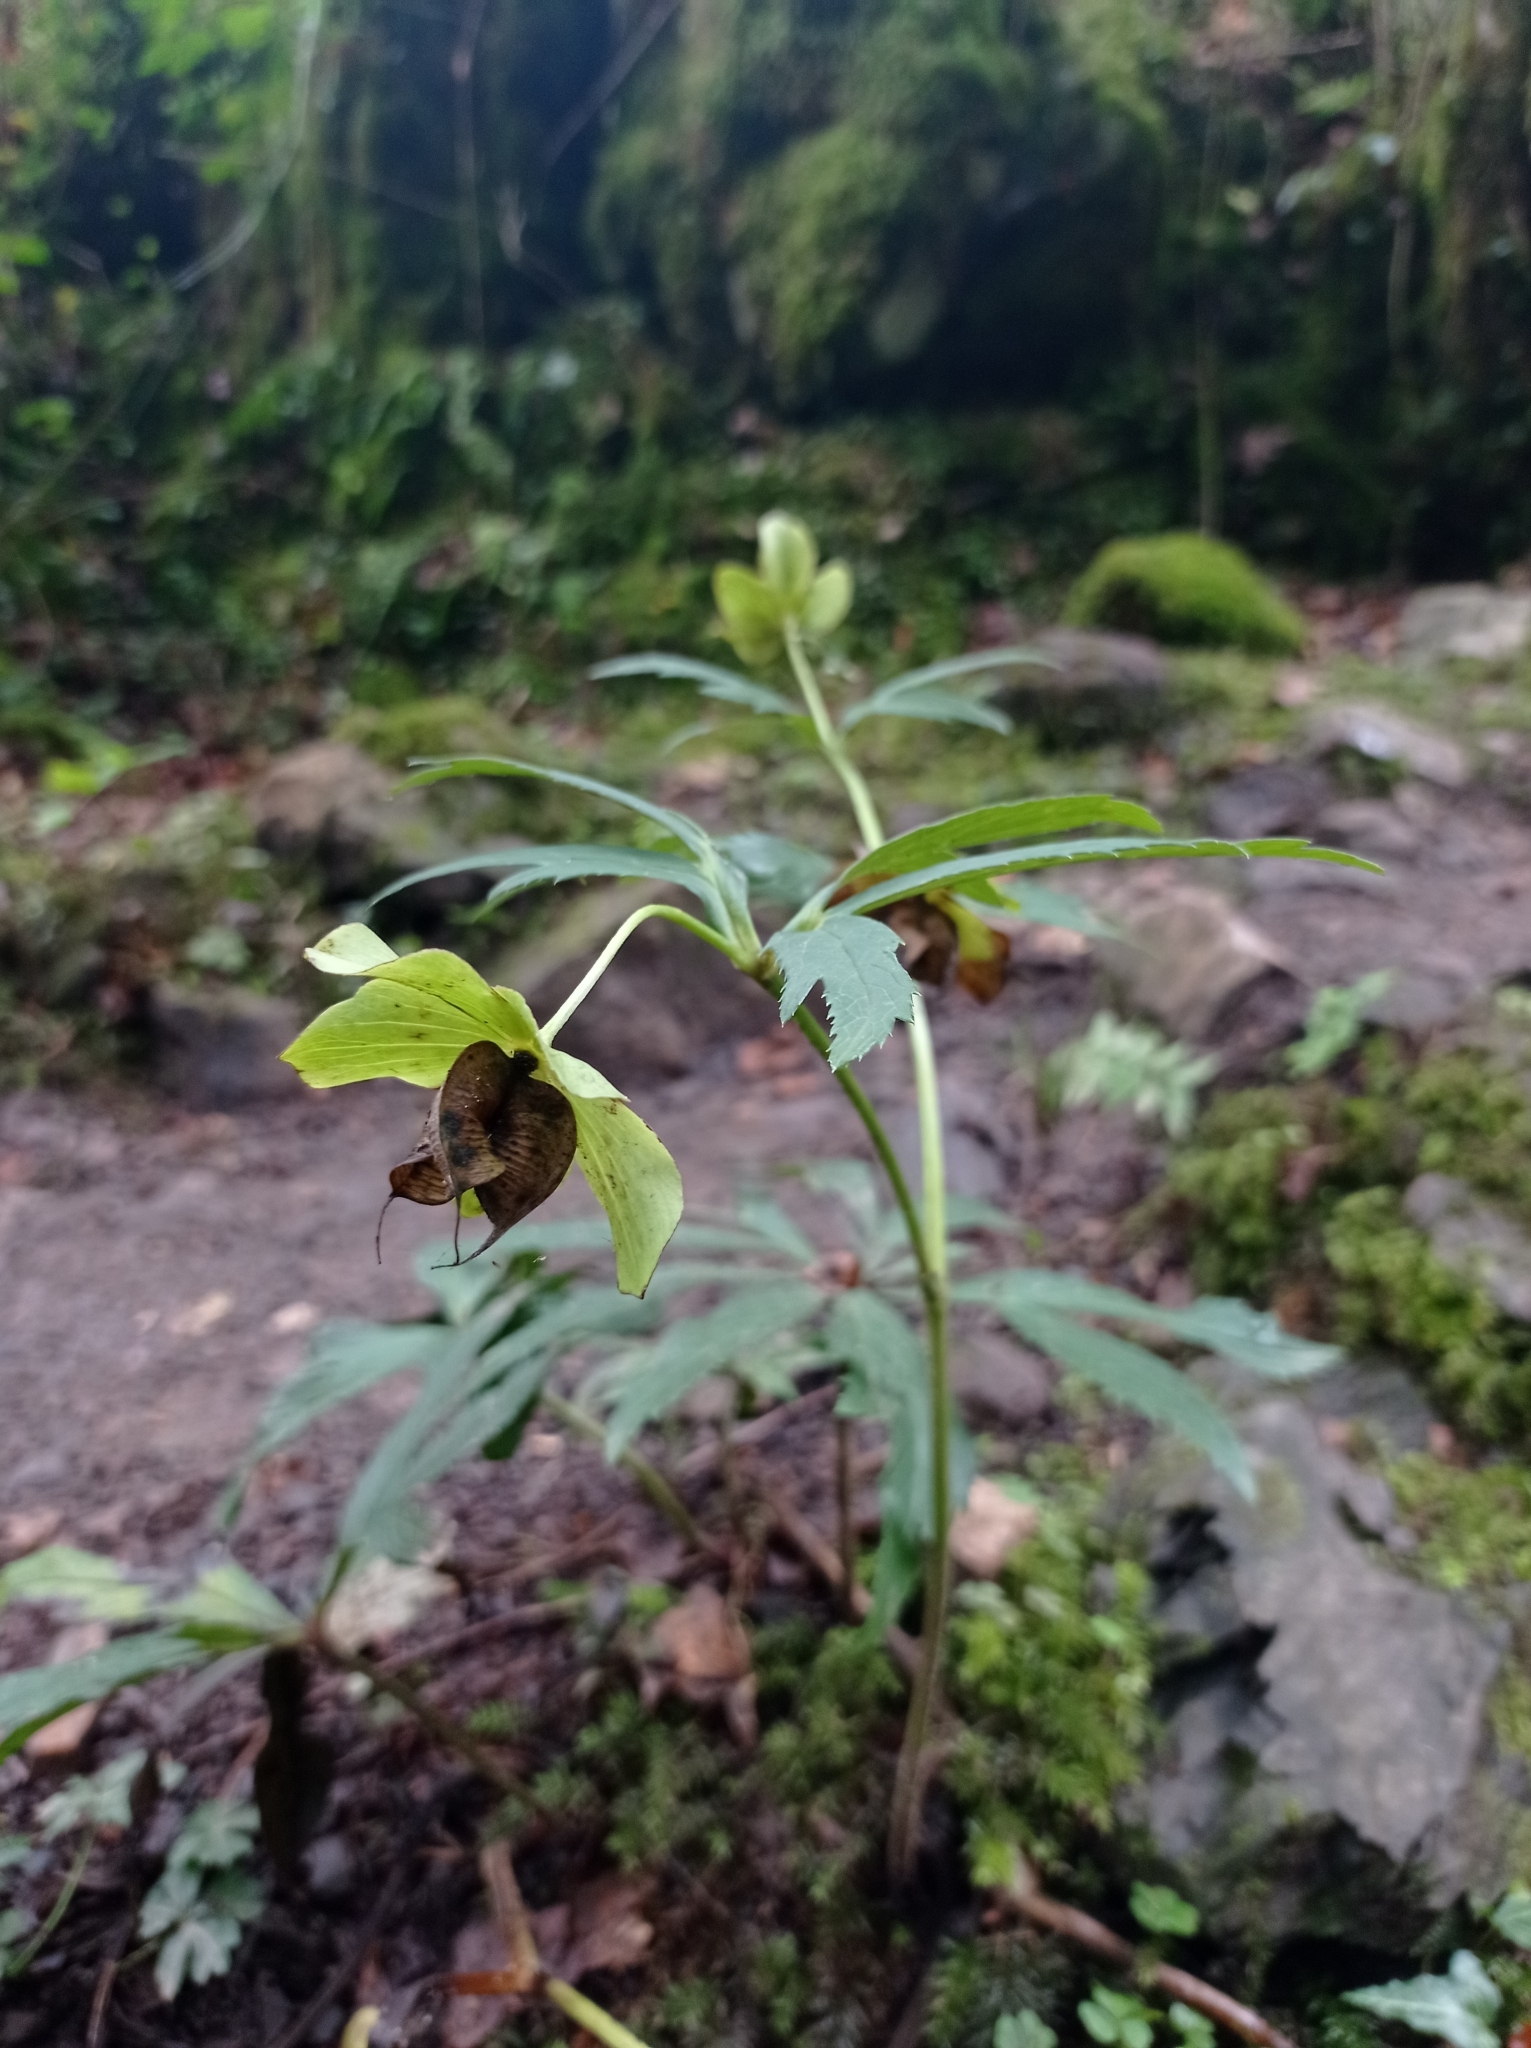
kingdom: Plantae
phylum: Tracheophyta
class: Magnoliopsida
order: Ranunculales
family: Ranunculaceae
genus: Helleborus
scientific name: Helleborus viridis
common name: Green hellebore
